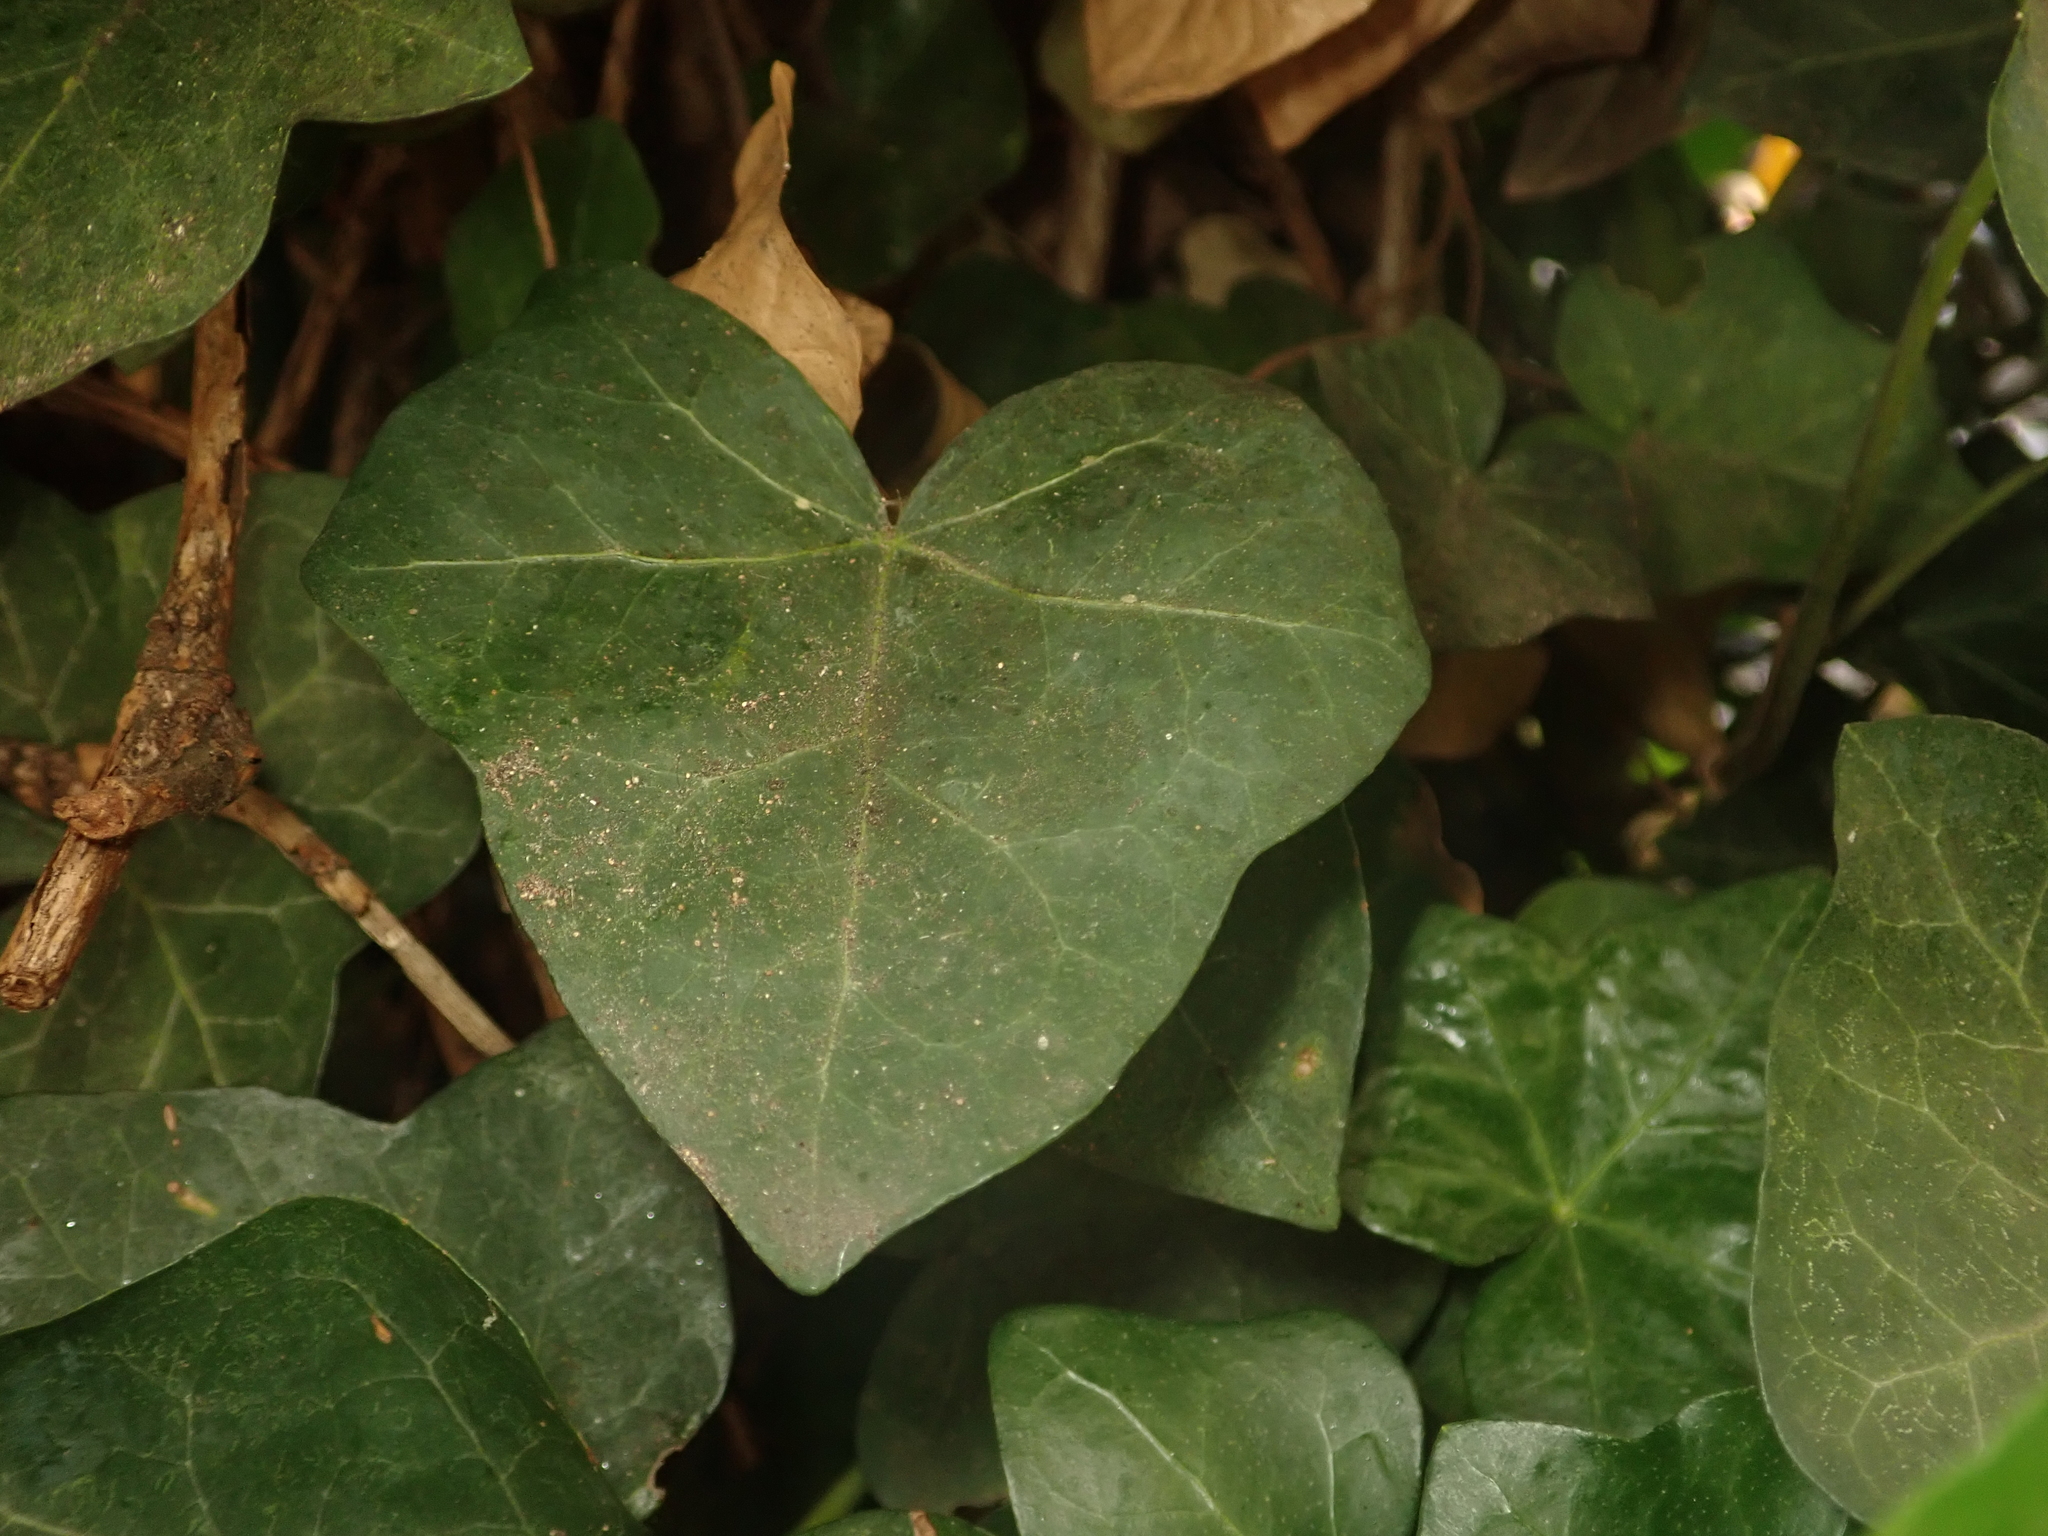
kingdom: Plantae
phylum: Tracheophyta
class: Magnoliopsida
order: Apiales
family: Araliaceae
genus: Hedera
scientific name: Hedera helix
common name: Ivy
